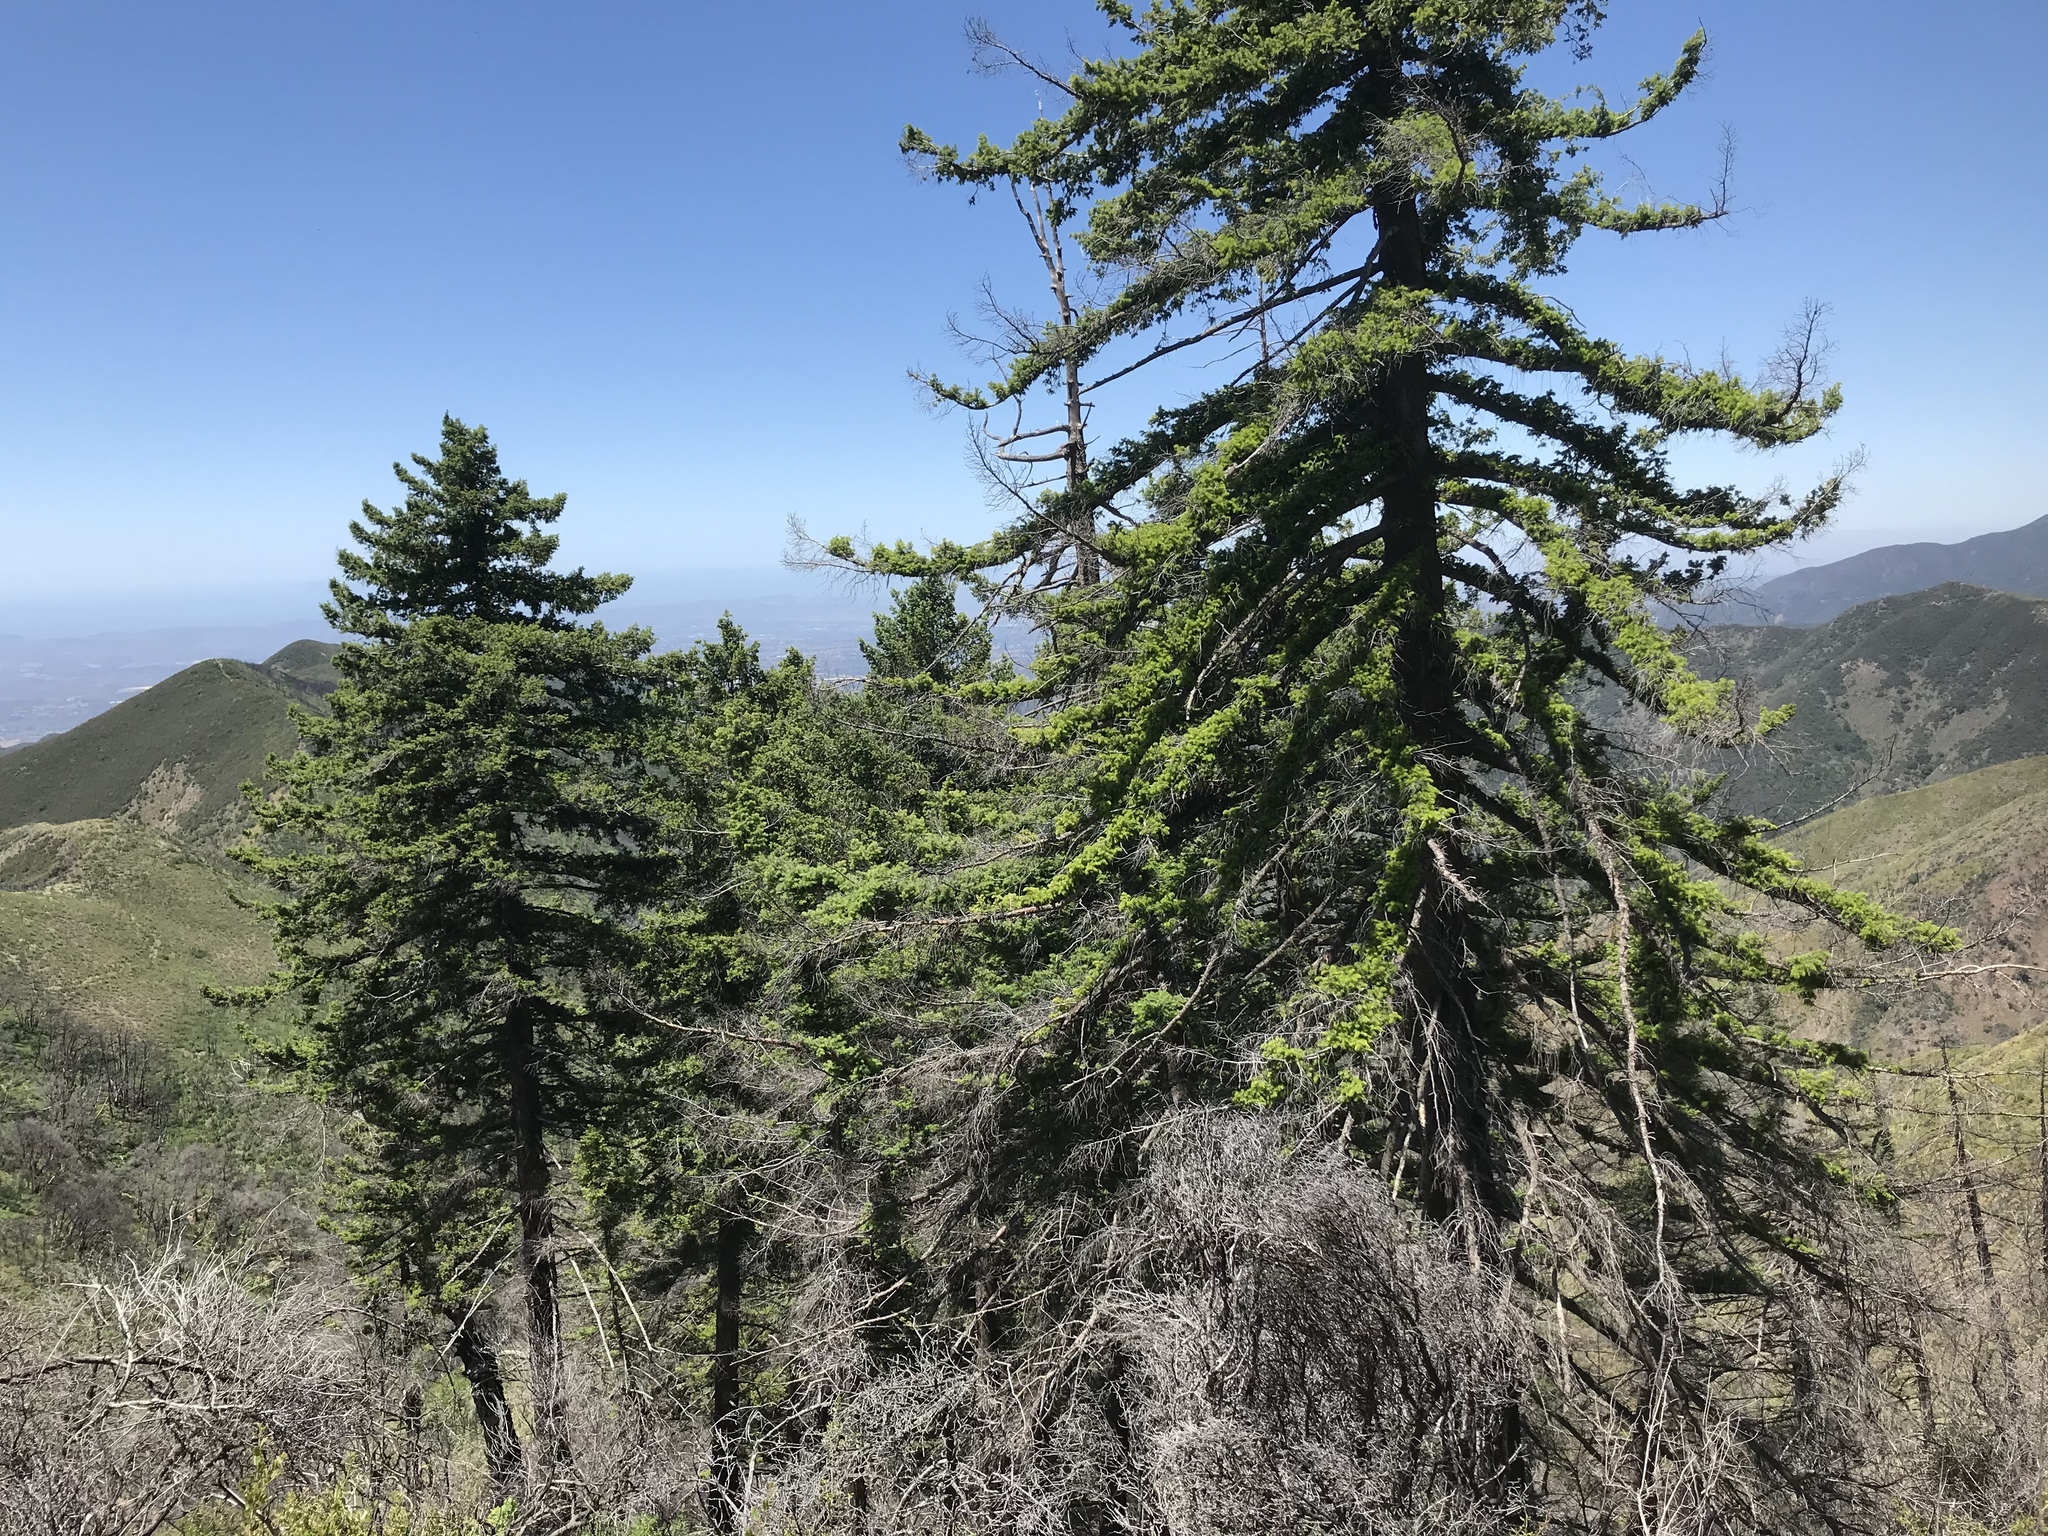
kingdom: Plantae
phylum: Tracheophyta
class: Pinopsida
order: Pinales
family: Pinaceae
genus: Pseudotsuga
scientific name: Pseudotsuga macrocarpa
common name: Big-cone douglas-fir
